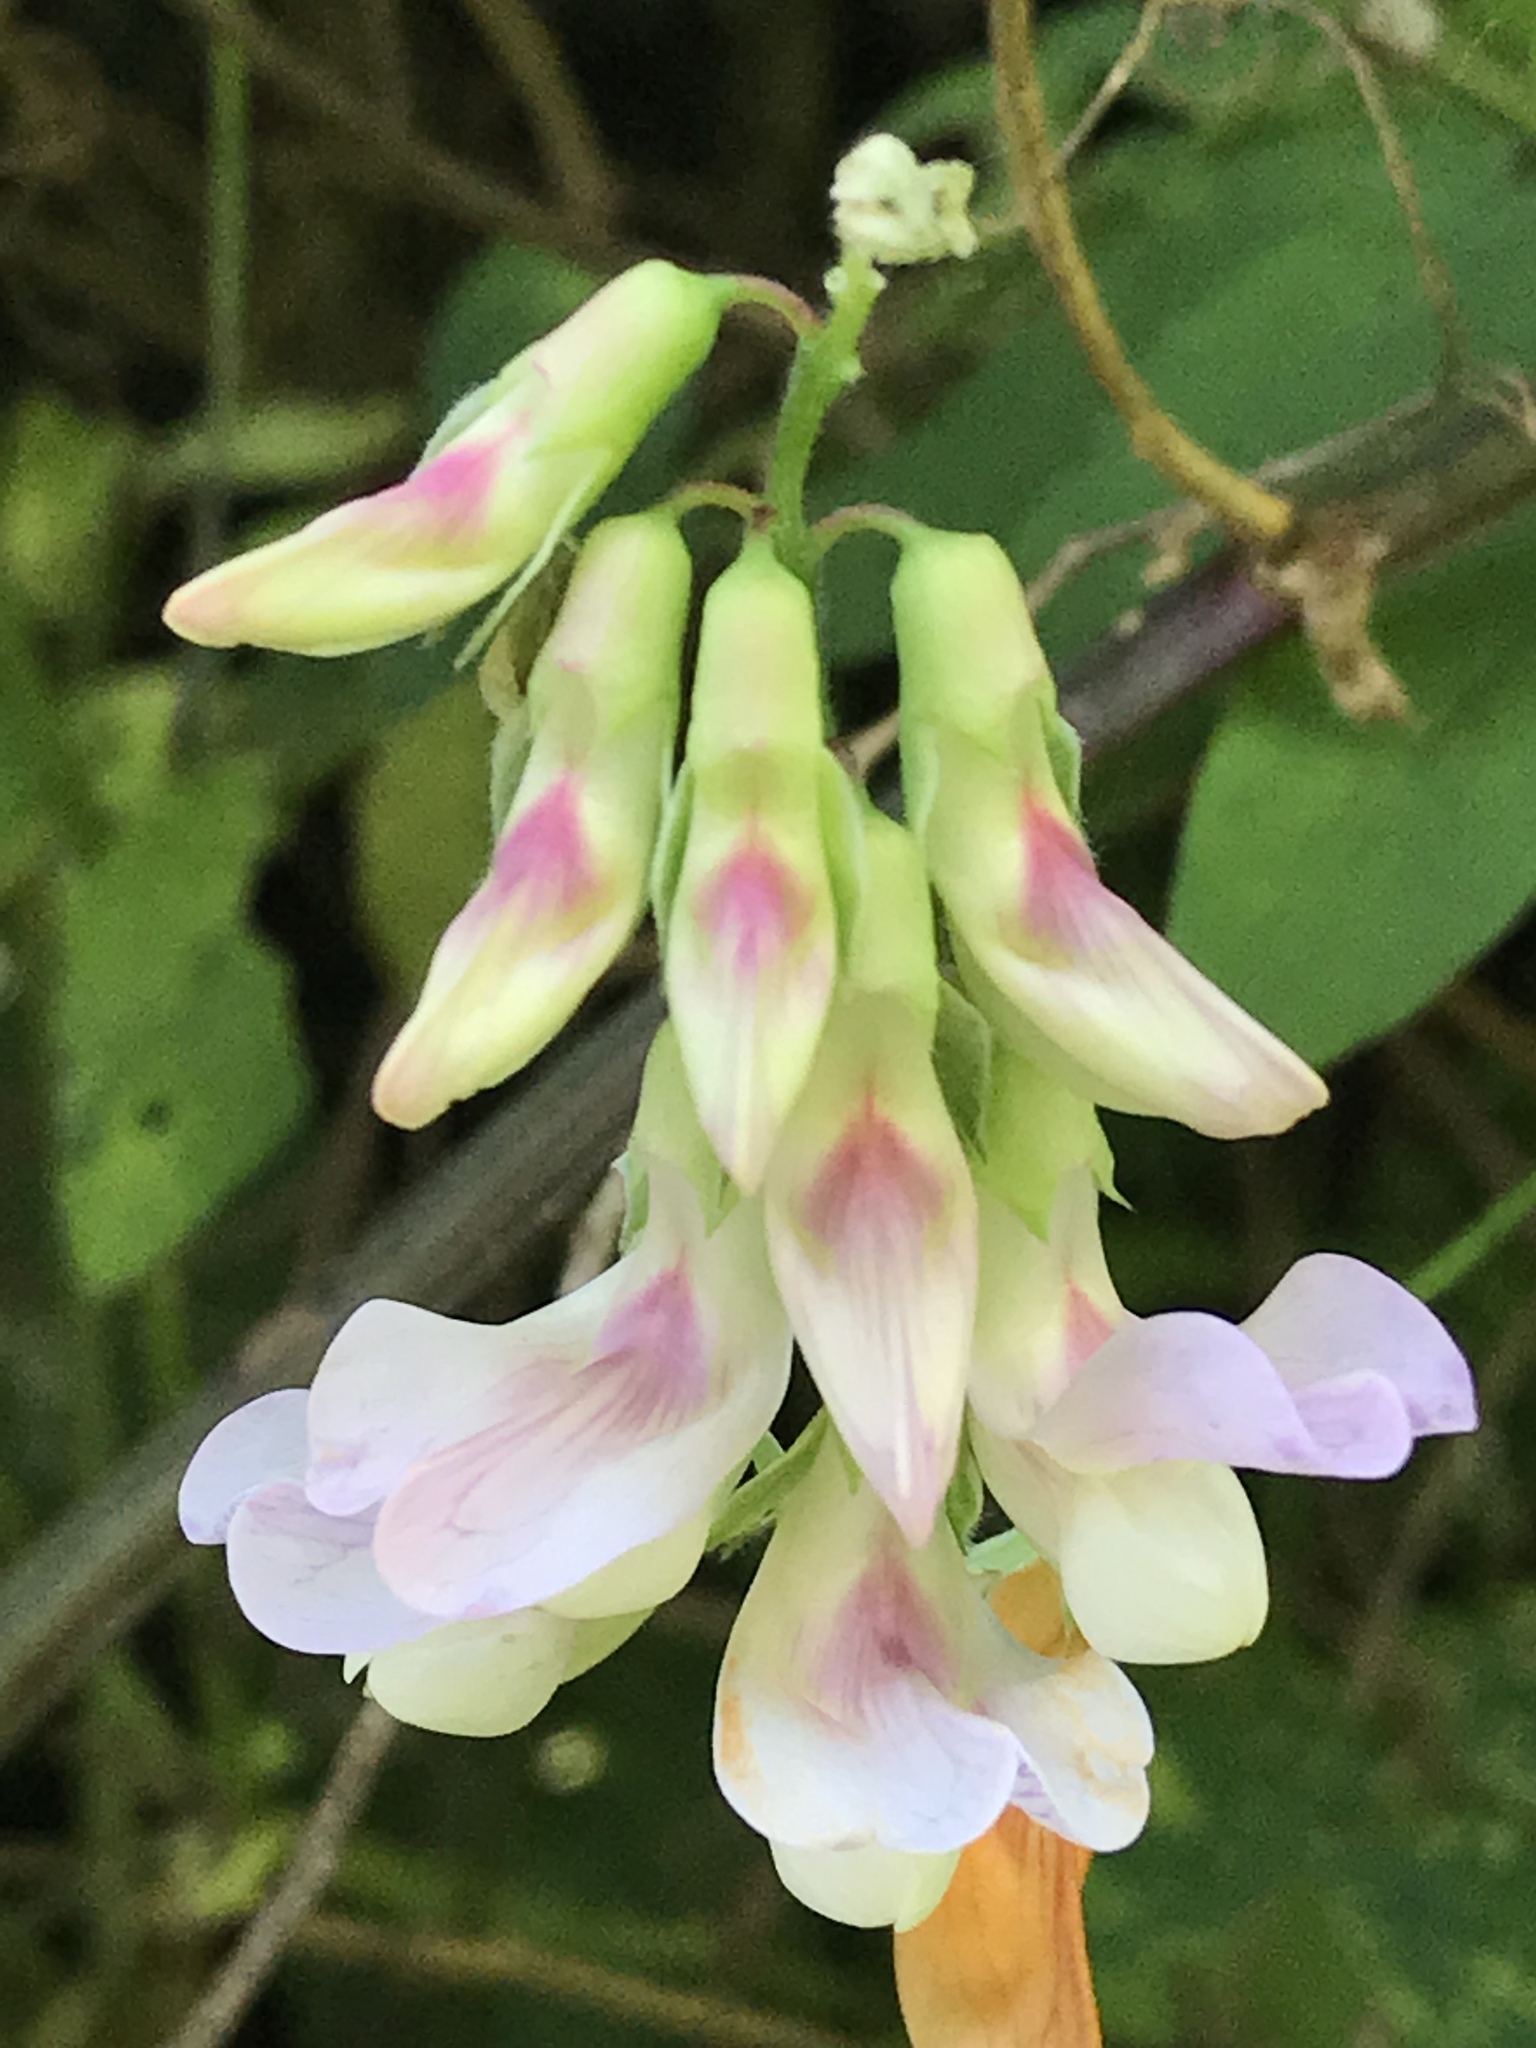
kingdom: Plantae
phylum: Tracheophyta
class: Magnoliopsida
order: Fabales
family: Fabaceae
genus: Lathyrus
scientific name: Lathyrus vestitus
